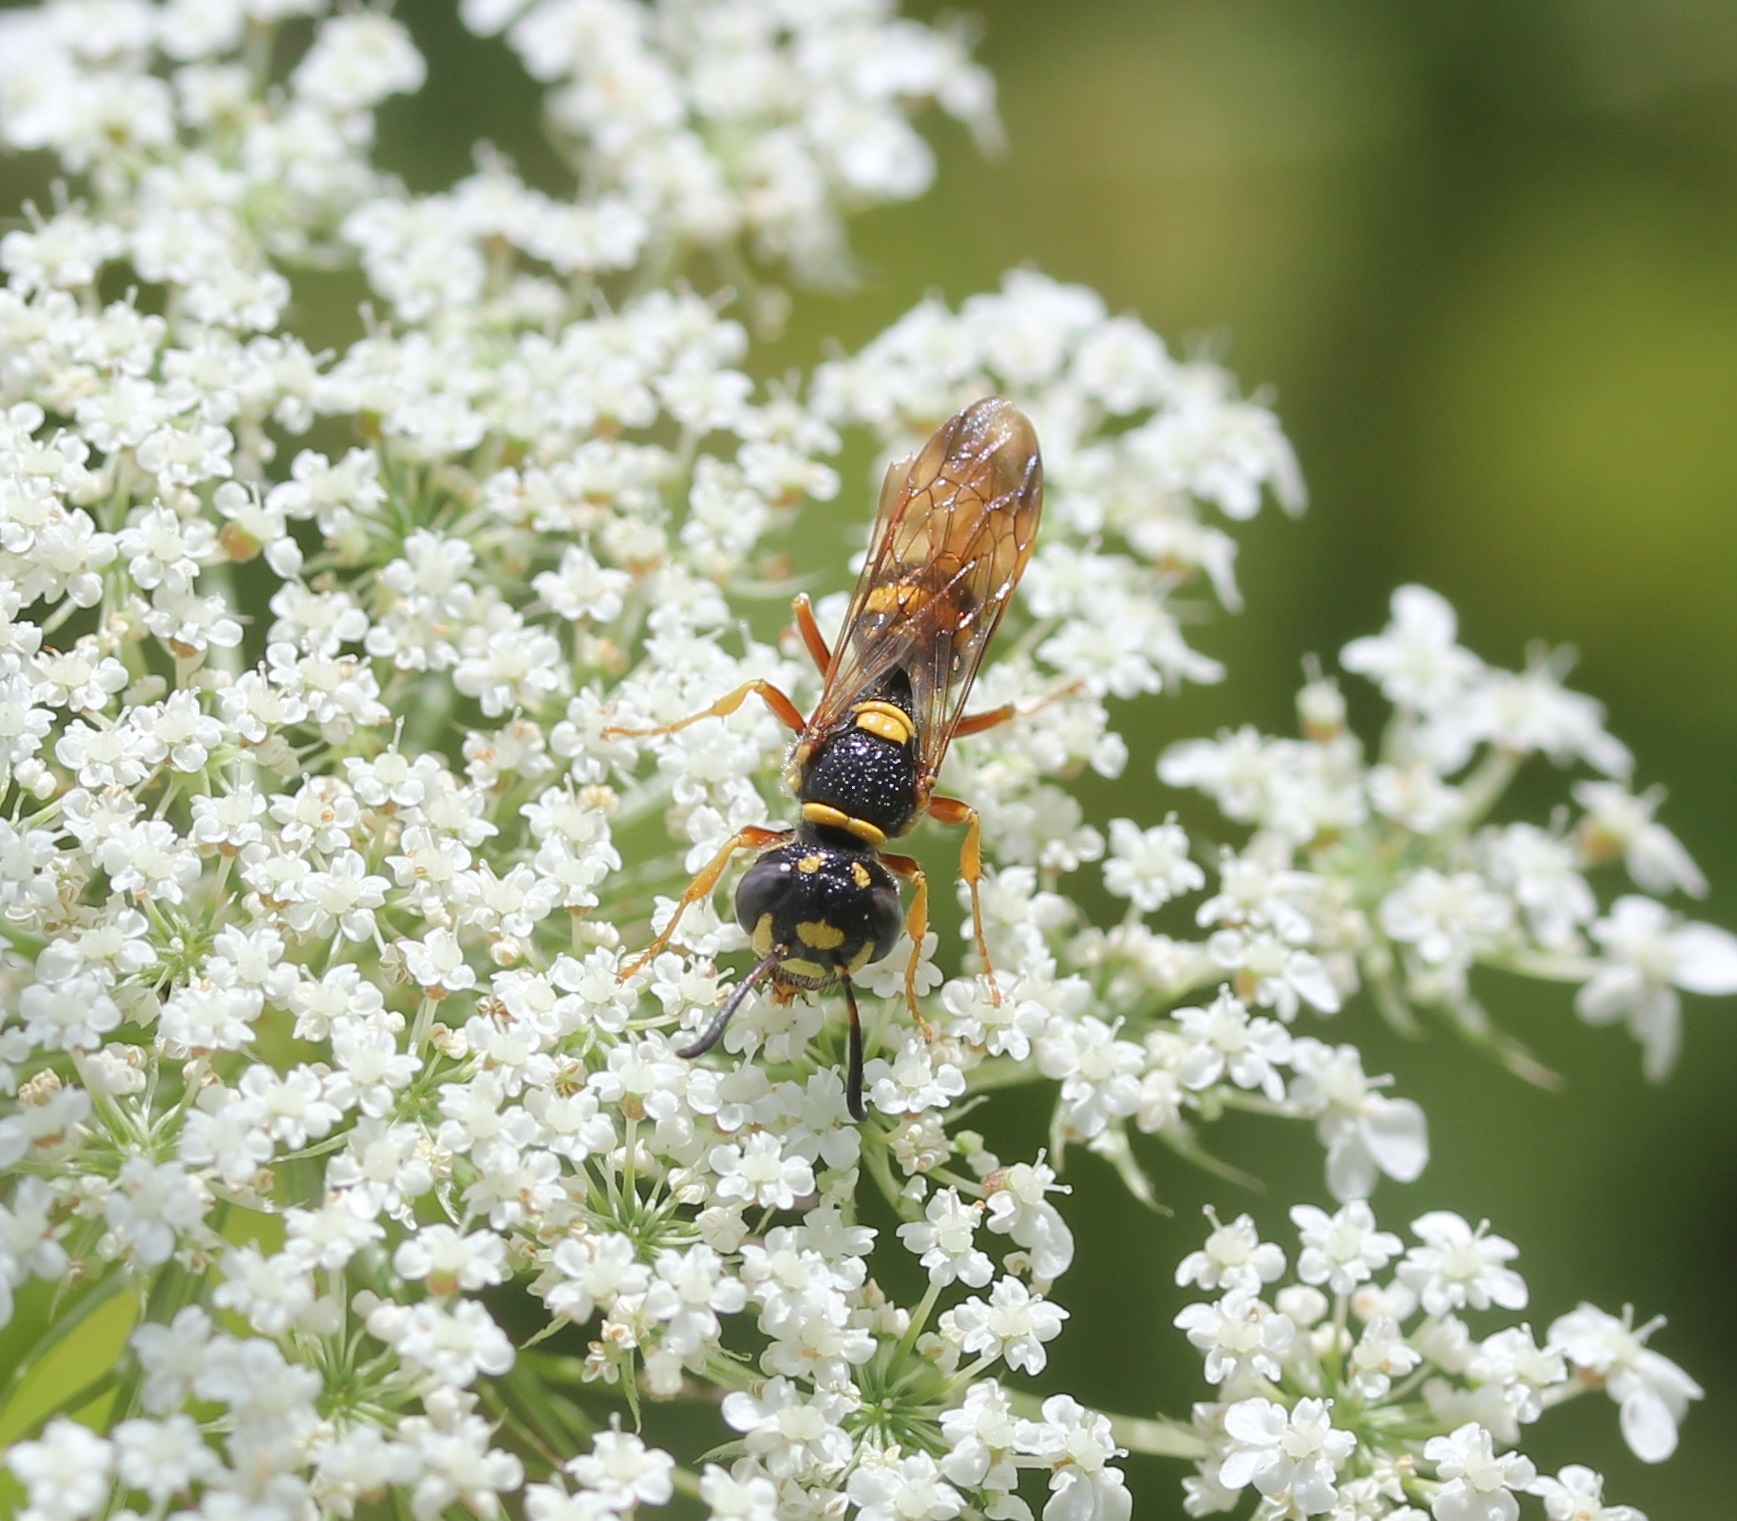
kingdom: Animalia
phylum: Arthropoda
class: Insecta
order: Hymenoptera
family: Crabronidae
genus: Philanthus
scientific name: Philanthus gibbosus
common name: Humped beewolf
